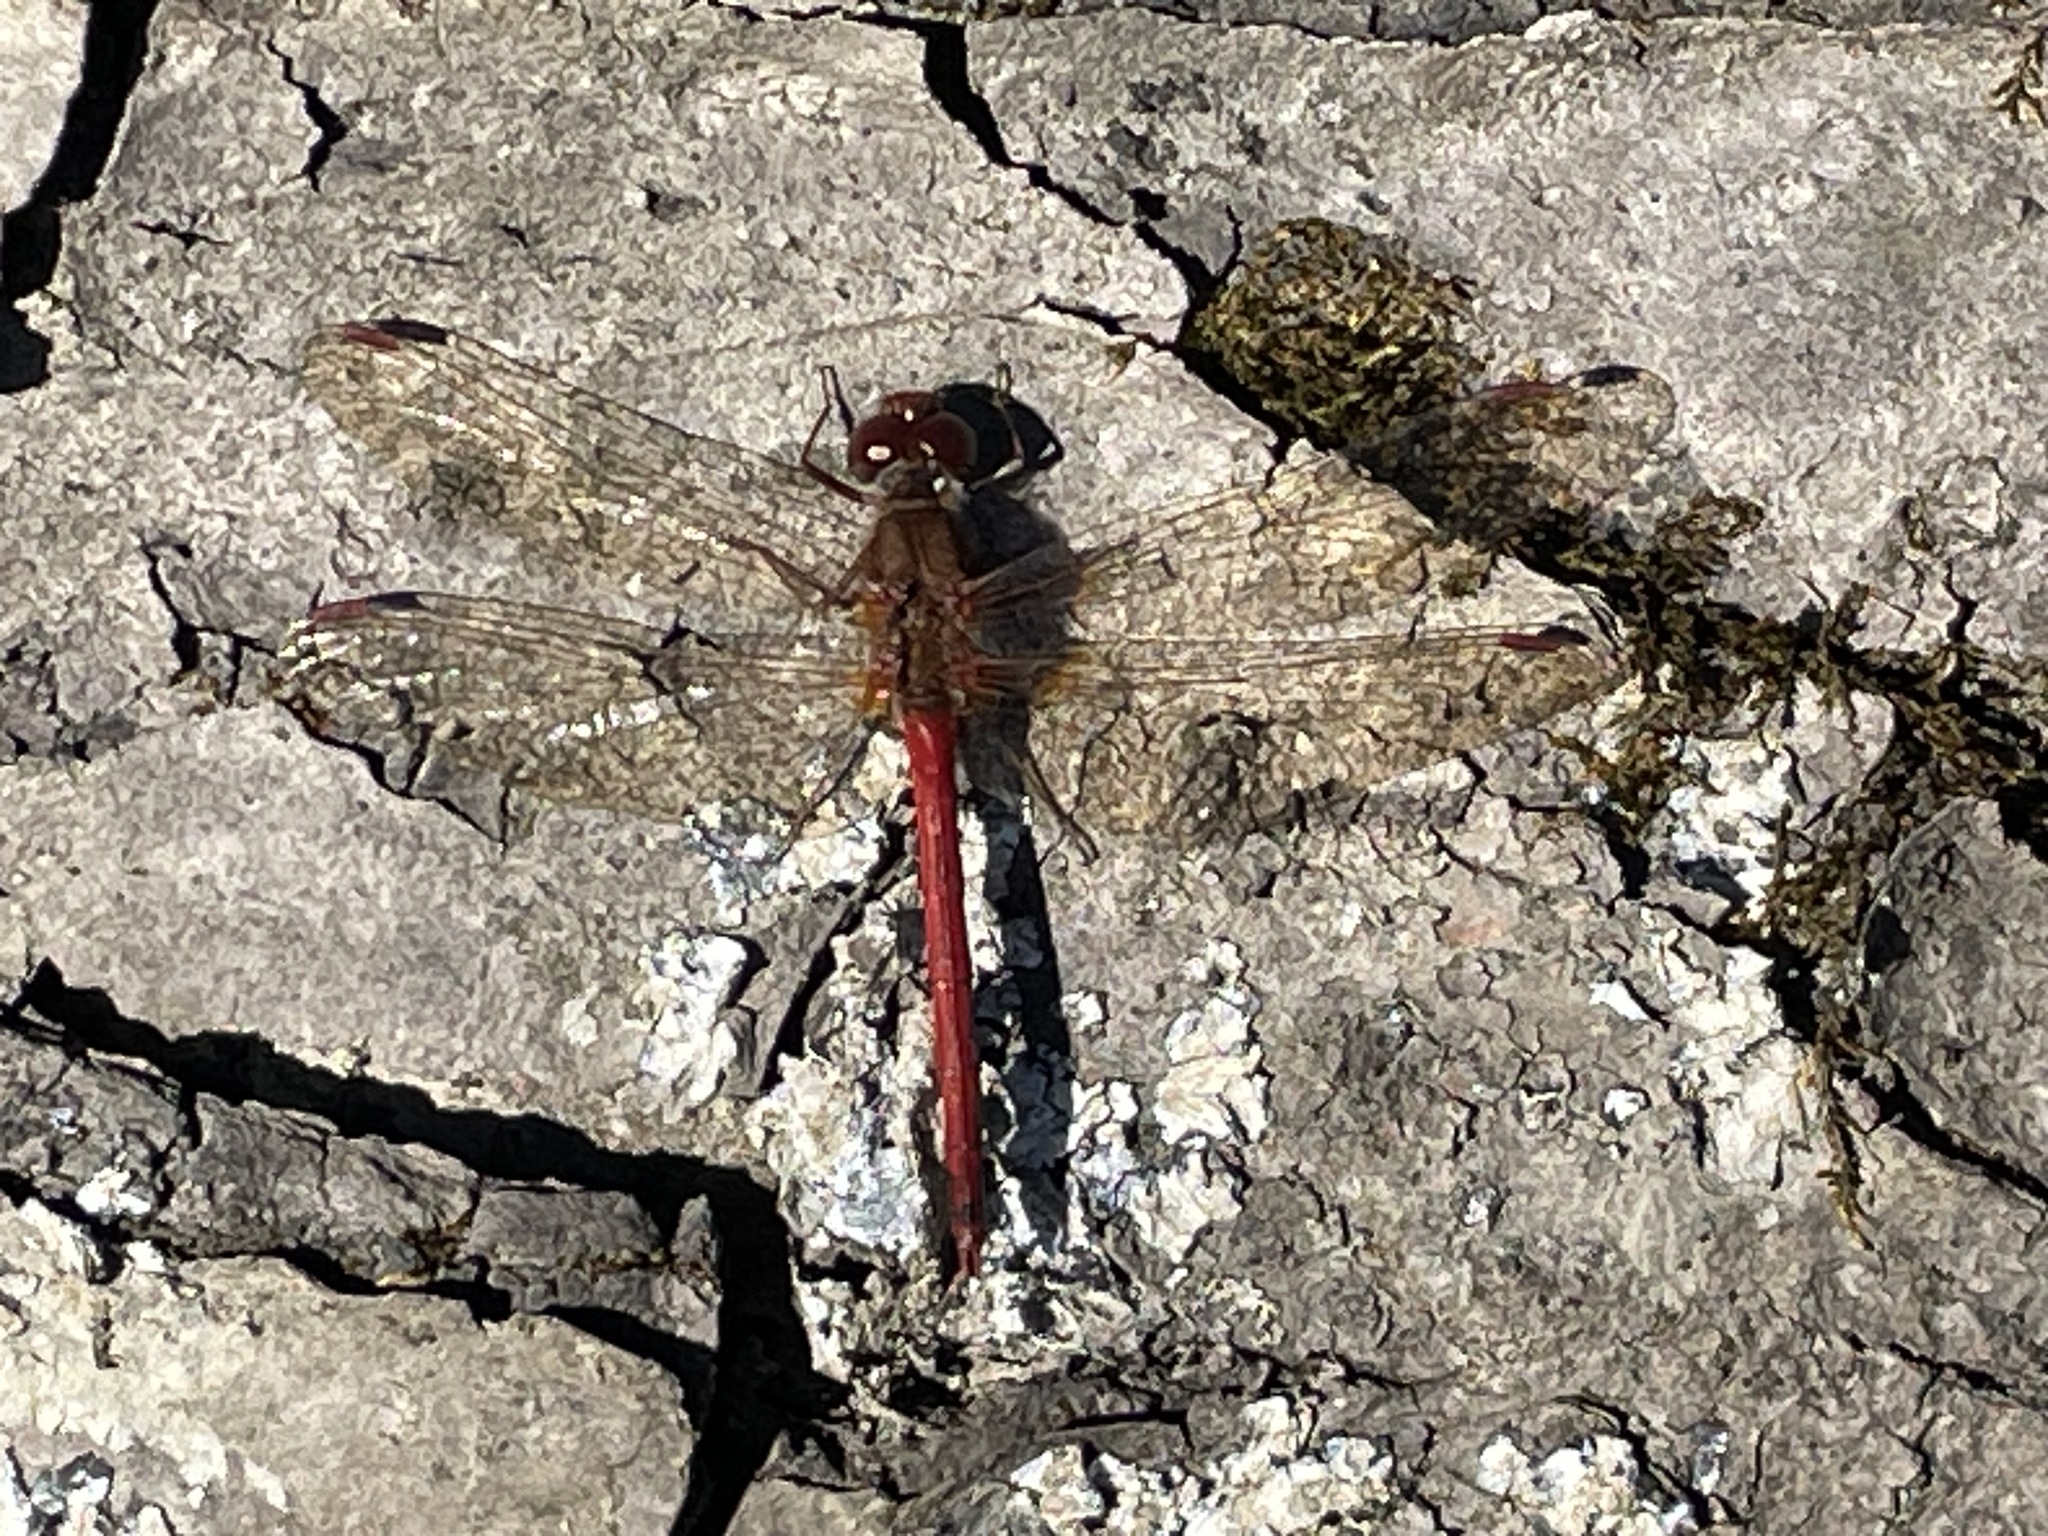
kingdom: Animalia
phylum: Arthropoda
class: Insecta
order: Odonata
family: Libellulidae
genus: Sympetrum
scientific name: Sympetrum vicinum
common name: Autumn meadowhawk
